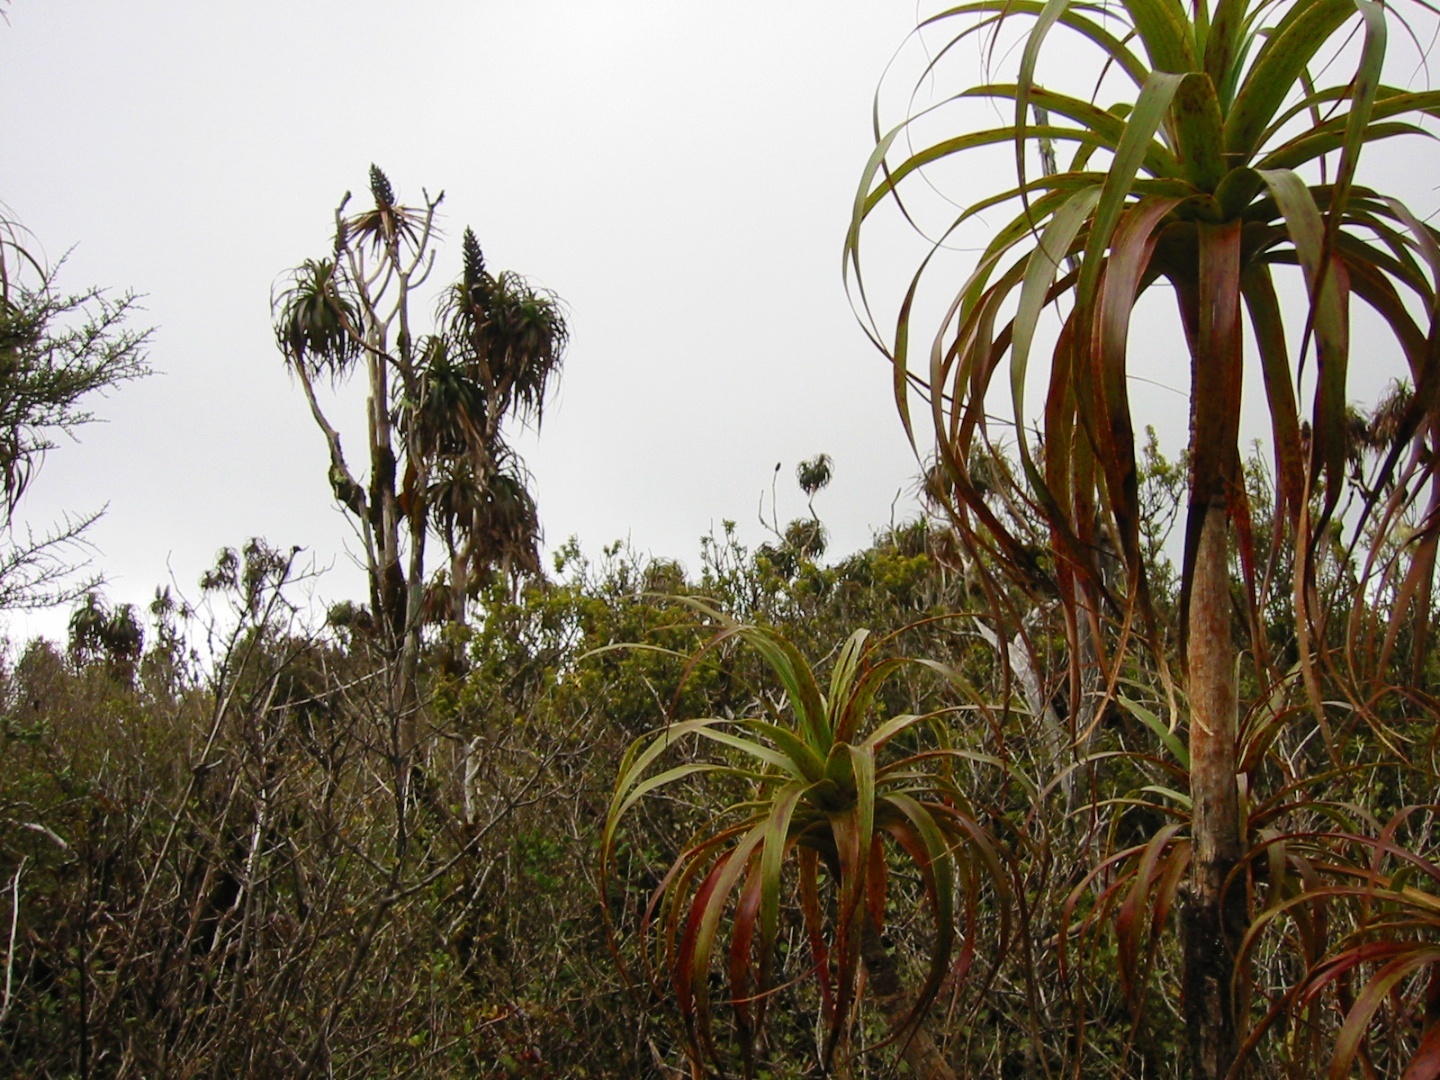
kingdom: Plantae
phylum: Tracheophyta
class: Magnoliopsida
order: Ericales
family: Ericaceae
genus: Dracophyllum
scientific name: Dracophyllum latifolium
